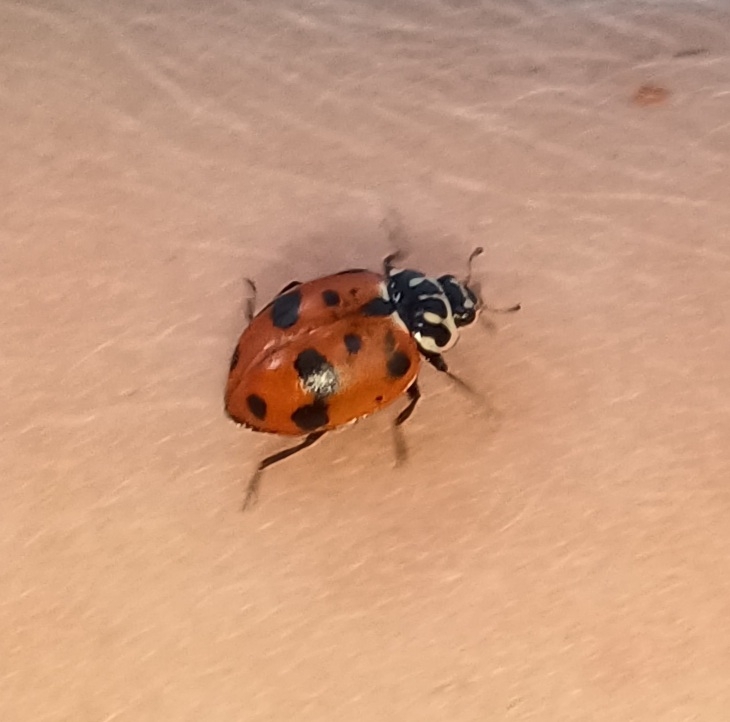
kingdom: Animalia
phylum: Arthropoda
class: Insecta
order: Coleoptera
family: Coccinellidae
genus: Hippodamia
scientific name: Hippodamia variegata
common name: Ladybird beetle
